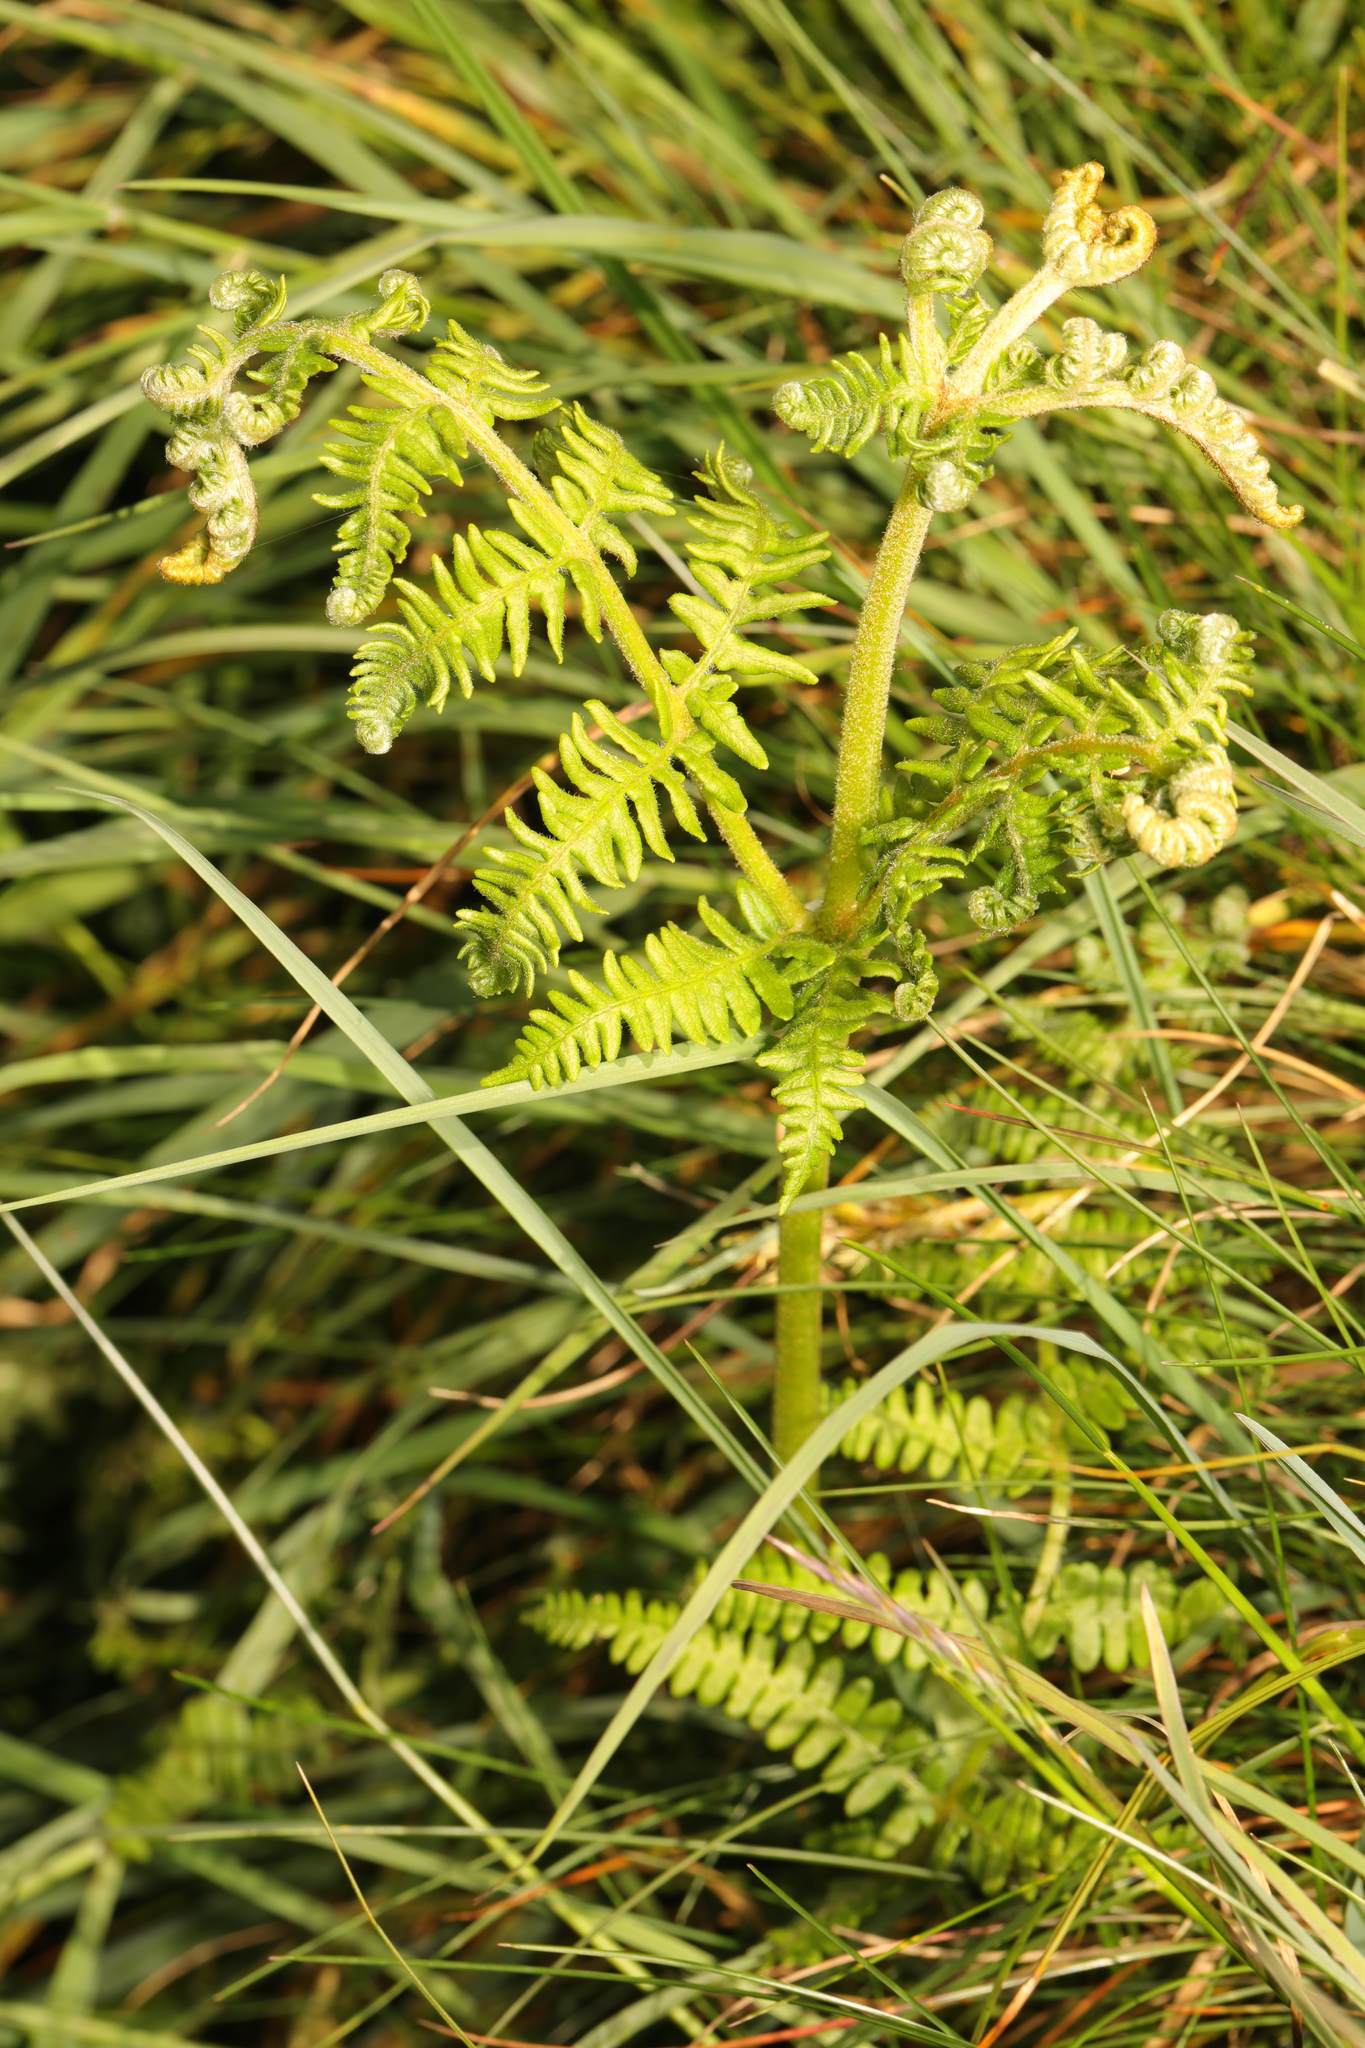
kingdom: Plantae
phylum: Tracheophyta
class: Polypodiopsida
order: Polypodiales
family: Dennstaedtiaceae
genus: Pteridium
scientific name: Pteridium aquilinum
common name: Bracken
